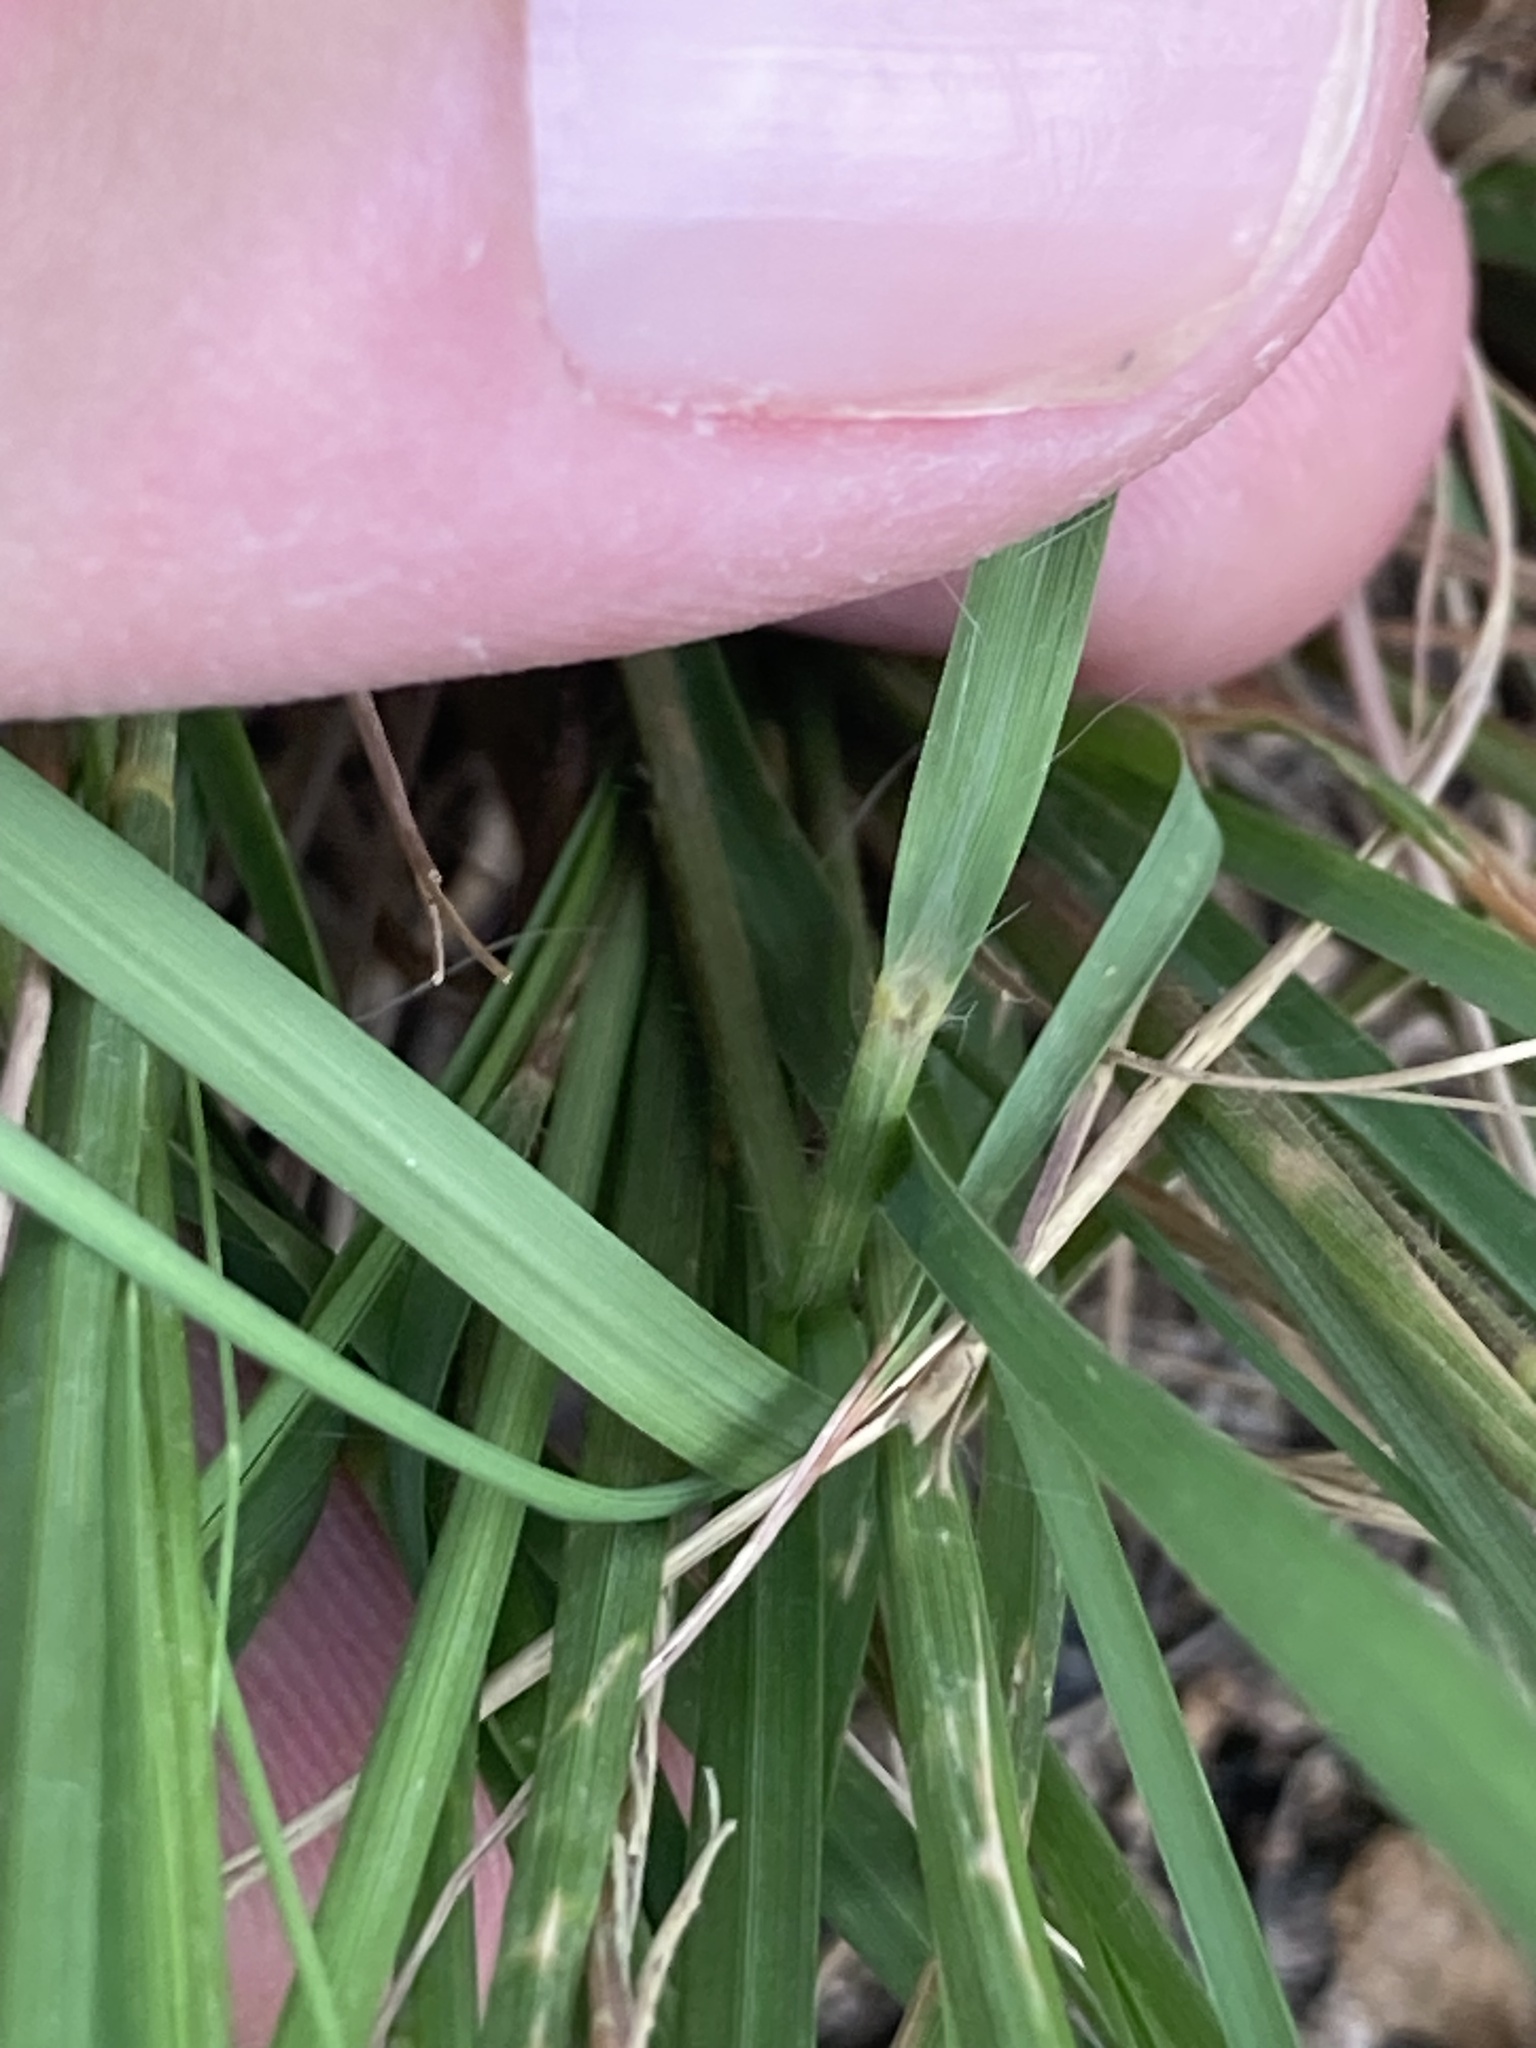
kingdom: Plantae
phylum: Tracheophyta
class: Liliopsida
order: Poales
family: Poaceae
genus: Eragrostis
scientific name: Eragrostis curvula
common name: African love-grass
